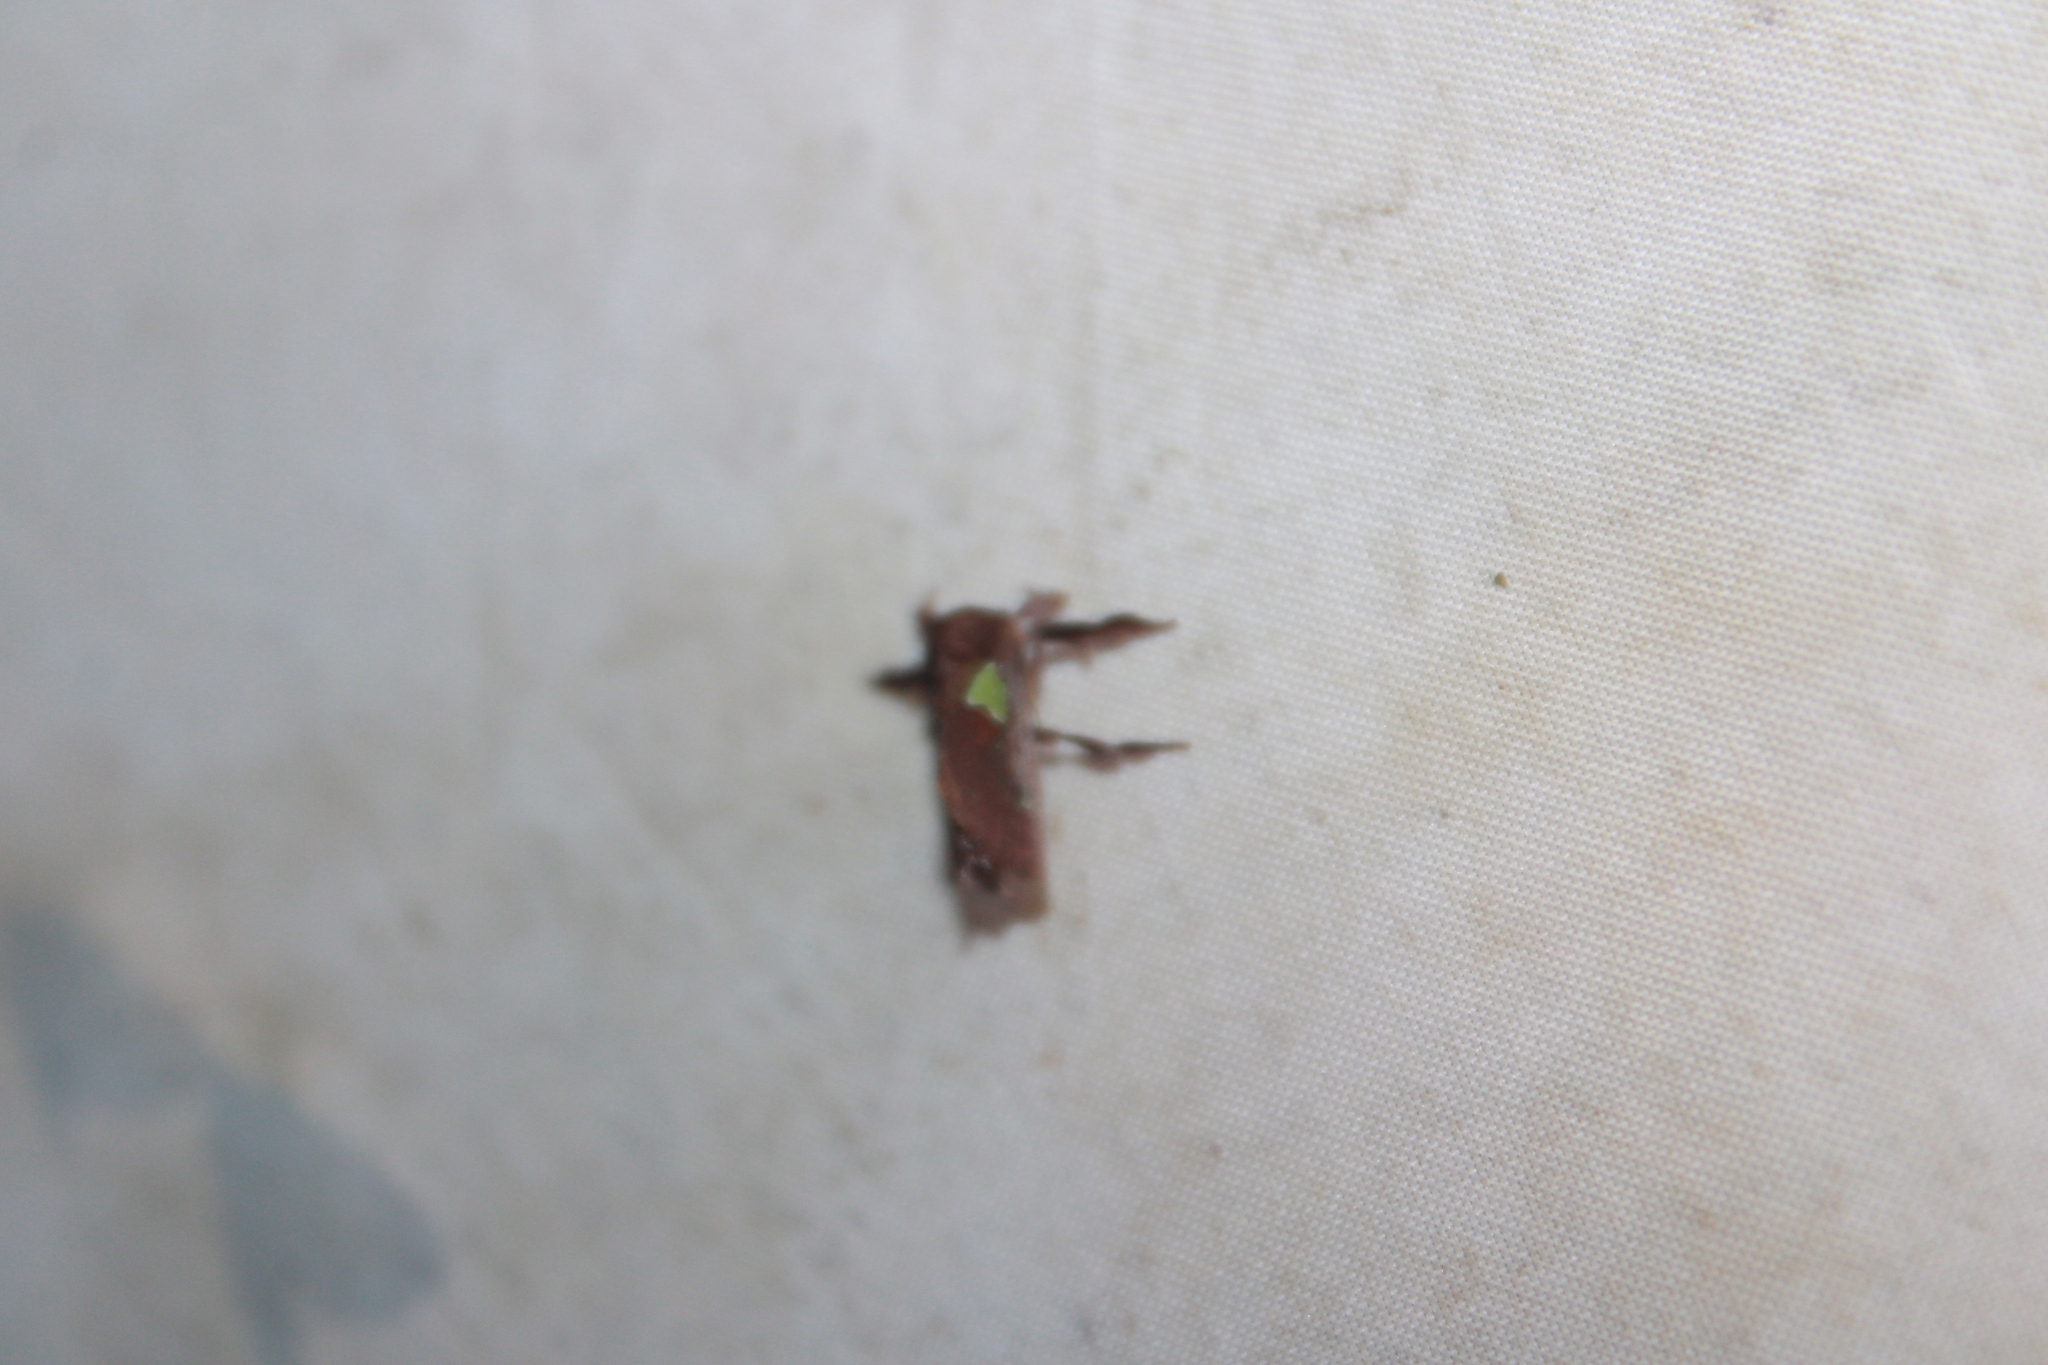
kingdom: Animalia
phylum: Arthropoda
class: Insecta
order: Lepidoptera
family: Limacodidae
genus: Euclea
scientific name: Euclea delphinii
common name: Spiny oak-slug moth
